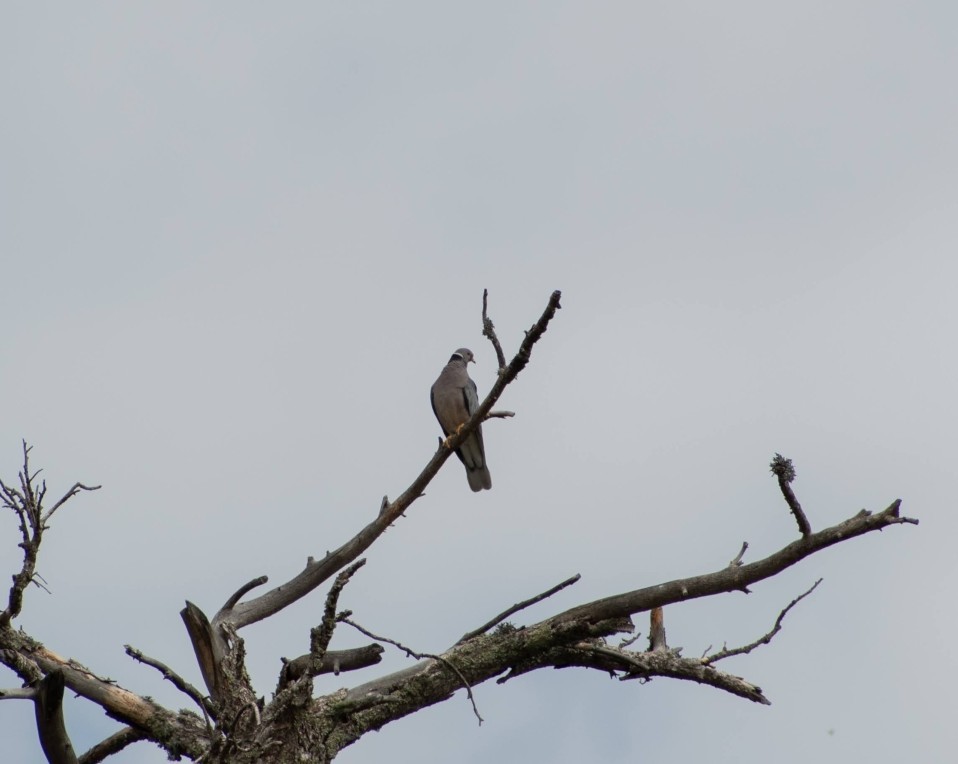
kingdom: Animalia
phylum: Chordata
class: Aves
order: Columbiformes
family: Columbidae
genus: Patagioenas
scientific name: Patagioenas fasciata
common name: Band-tailed pigeon
